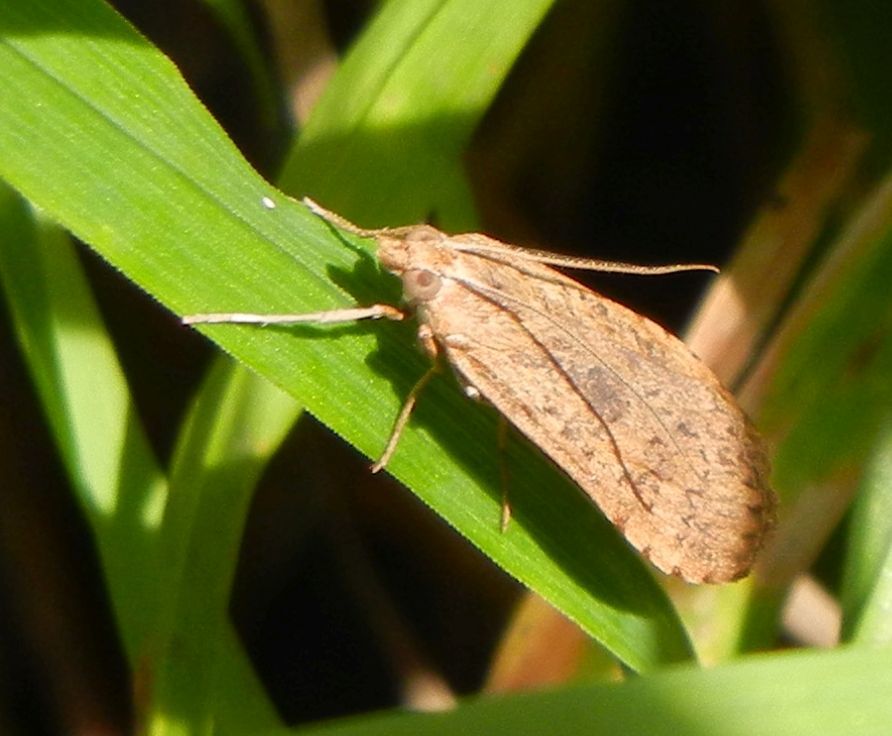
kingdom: Animalia
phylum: Arthropoda
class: Insecta
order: Lepidoptera
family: Crambidae
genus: Nomophila
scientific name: Nomophila noctuella
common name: Rush veneer
